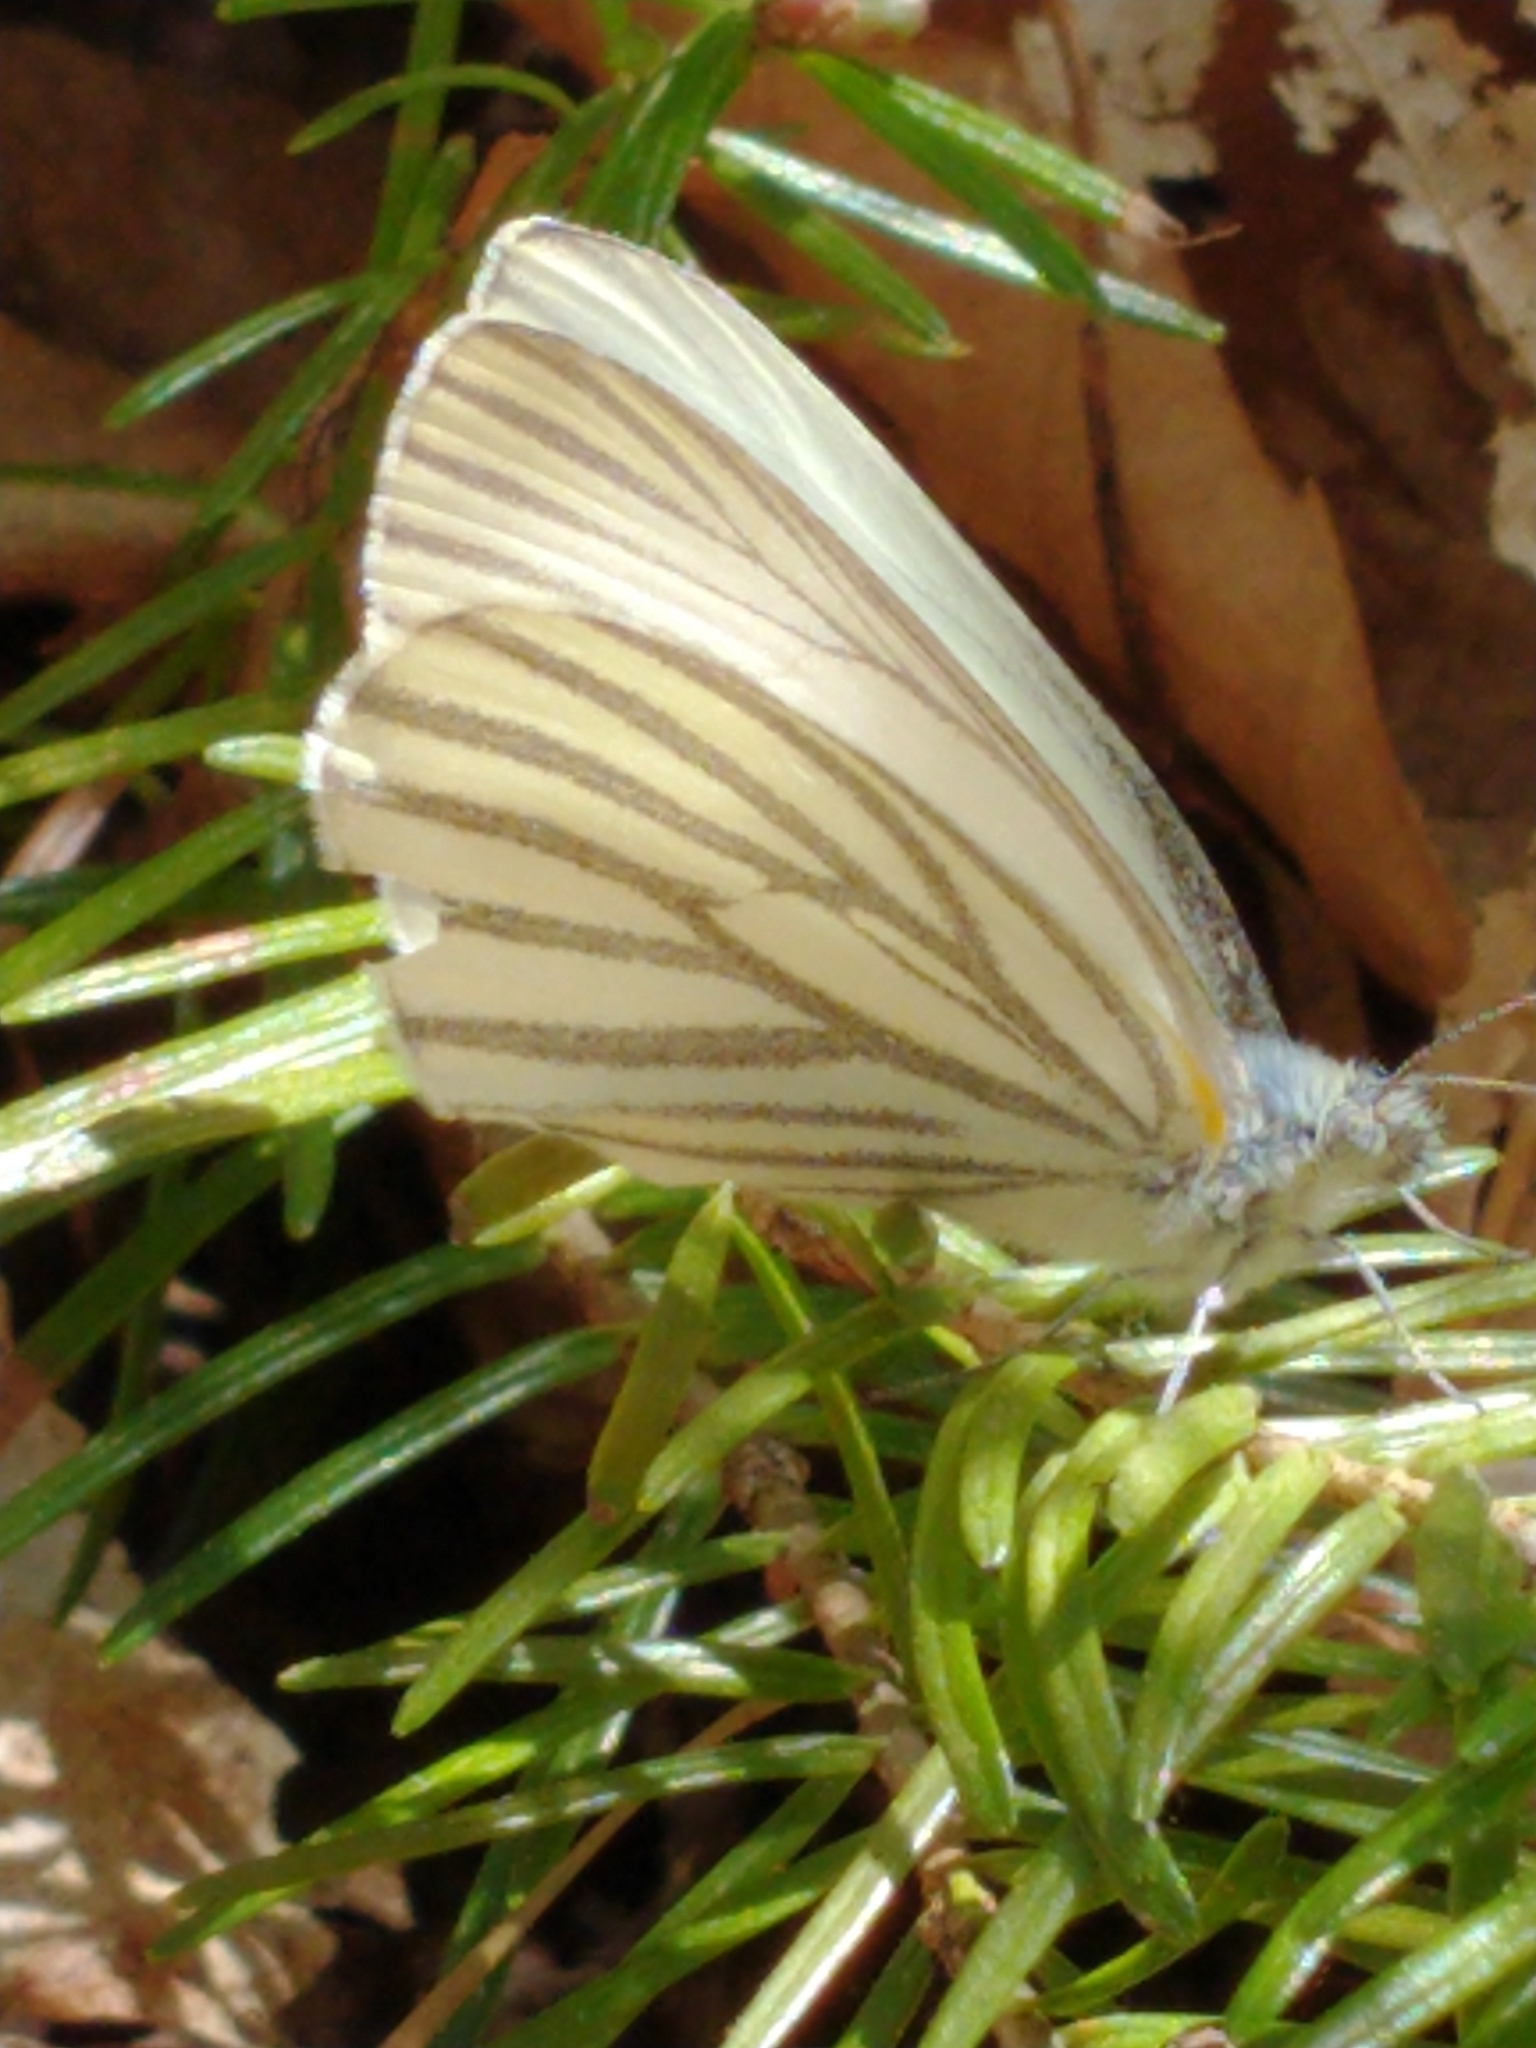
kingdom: Animalia
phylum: Arthropoda
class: Insecta
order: Lepidoptera
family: Pieridae
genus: Pieris
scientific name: Pieris oleracea
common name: Mustard white
